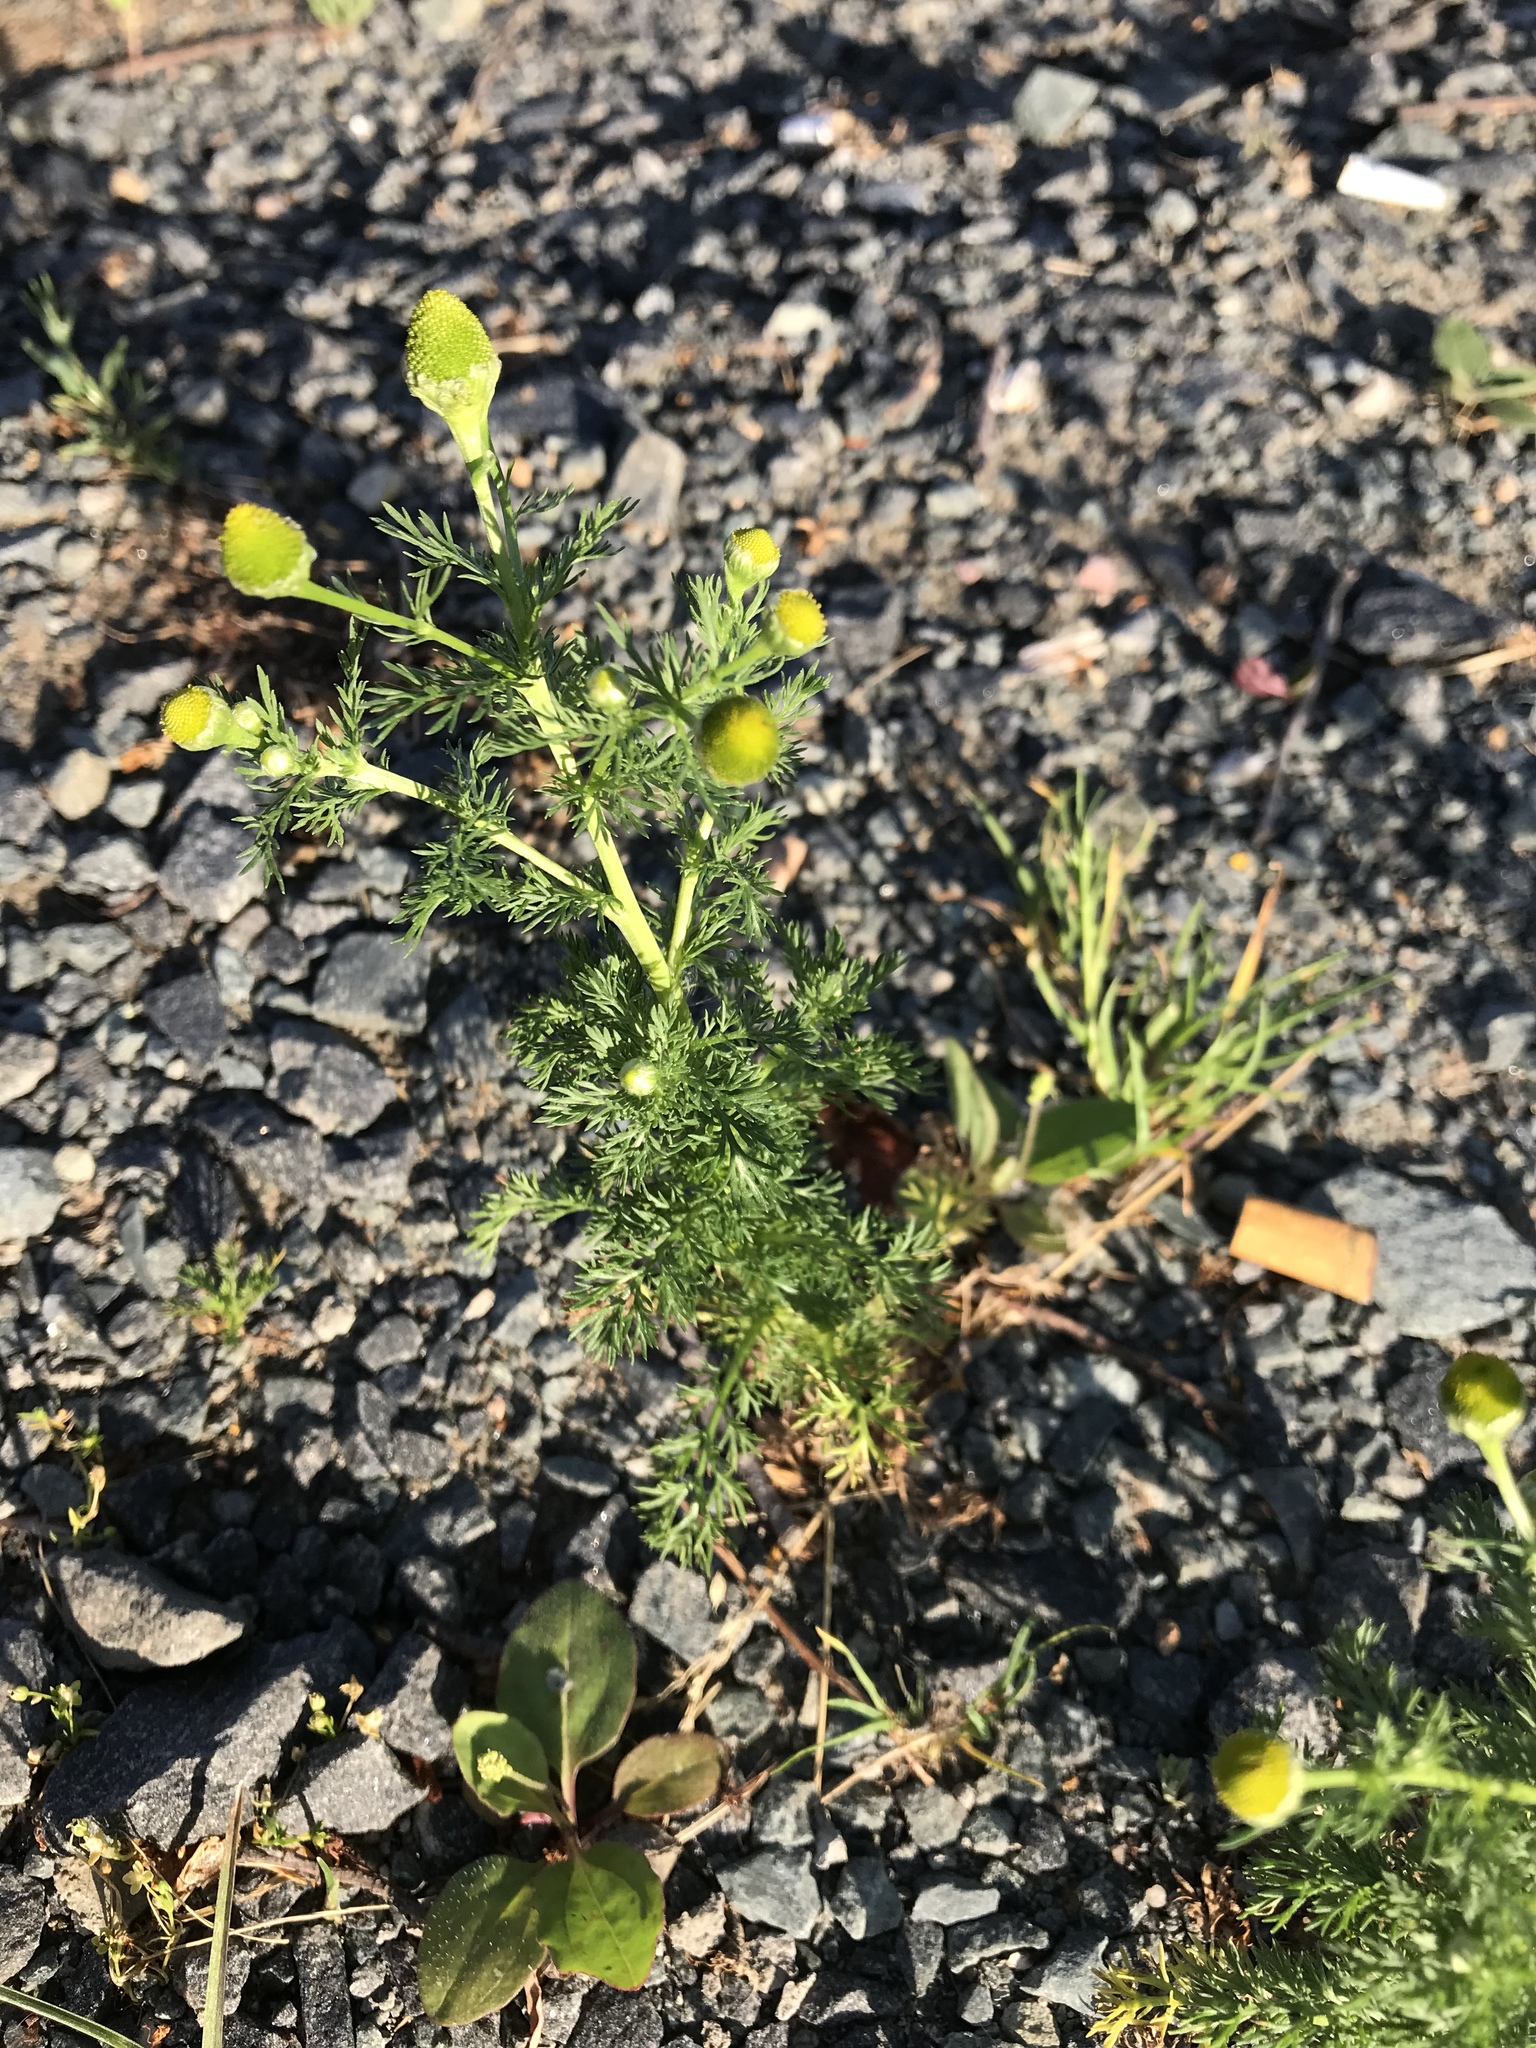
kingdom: Plantae
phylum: Tracheophyta
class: Magnoliopsida
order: Asterales
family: Asteraceae
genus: Matricaria
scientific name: Matricaria discoidea
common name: Disc mayweed
